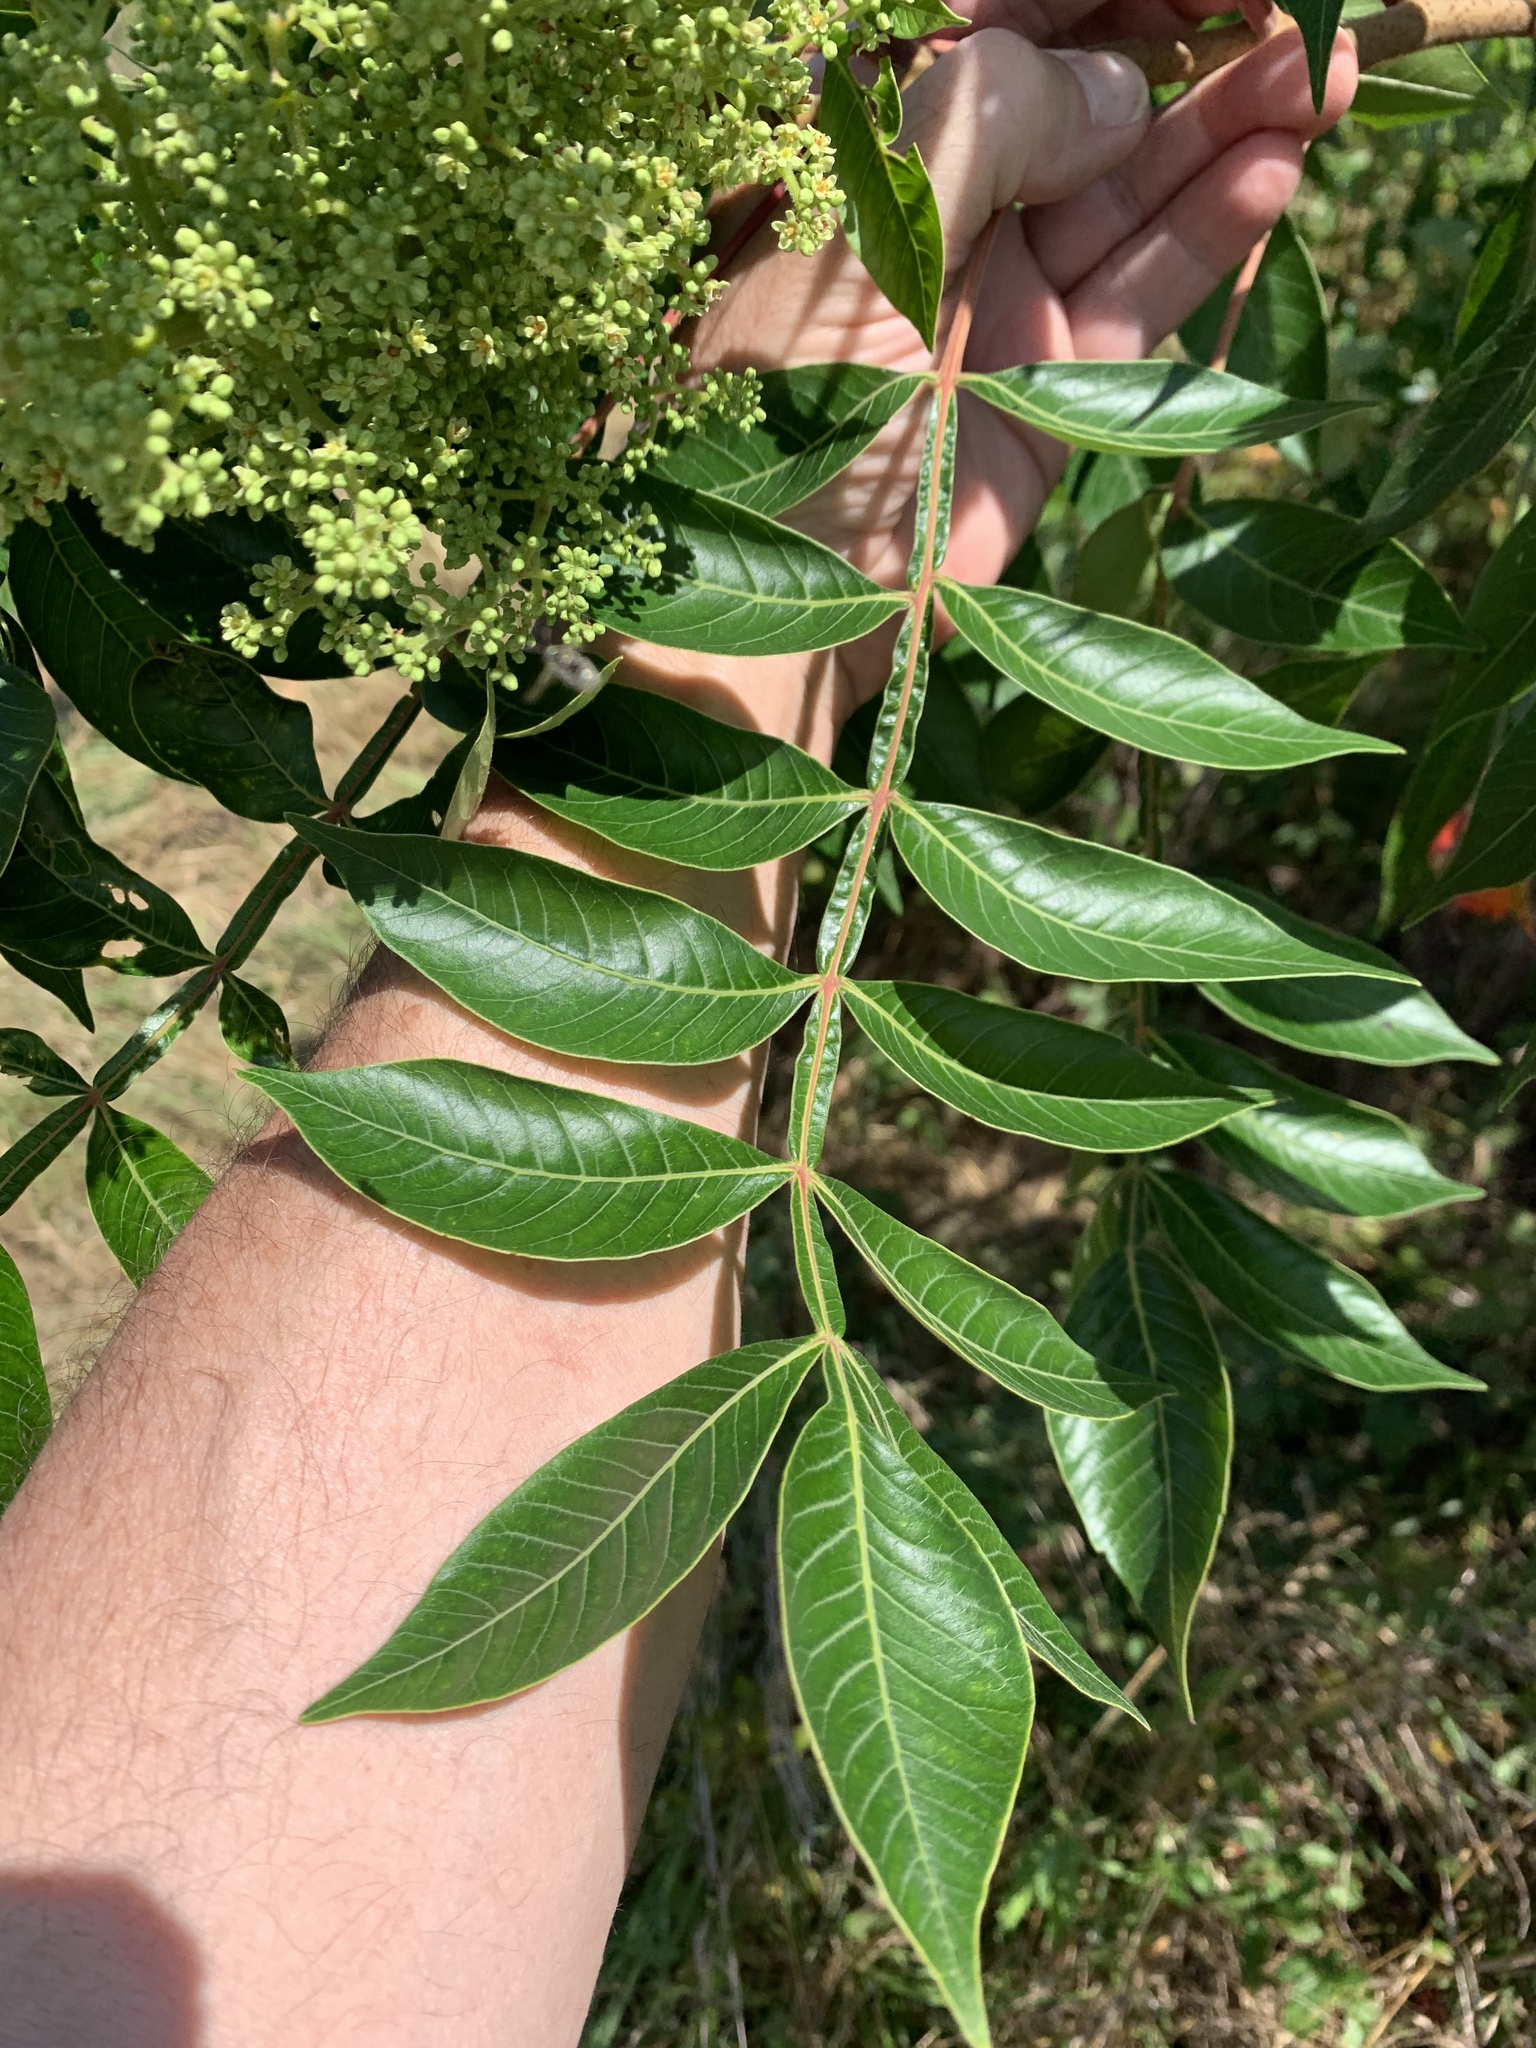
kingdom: Plantae
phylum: Tracheophyta
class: Magnoliopsida
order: Sapindales
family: Anacardiaceae
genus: Rhus
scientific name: Rhus copallina
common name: Shining sumac
